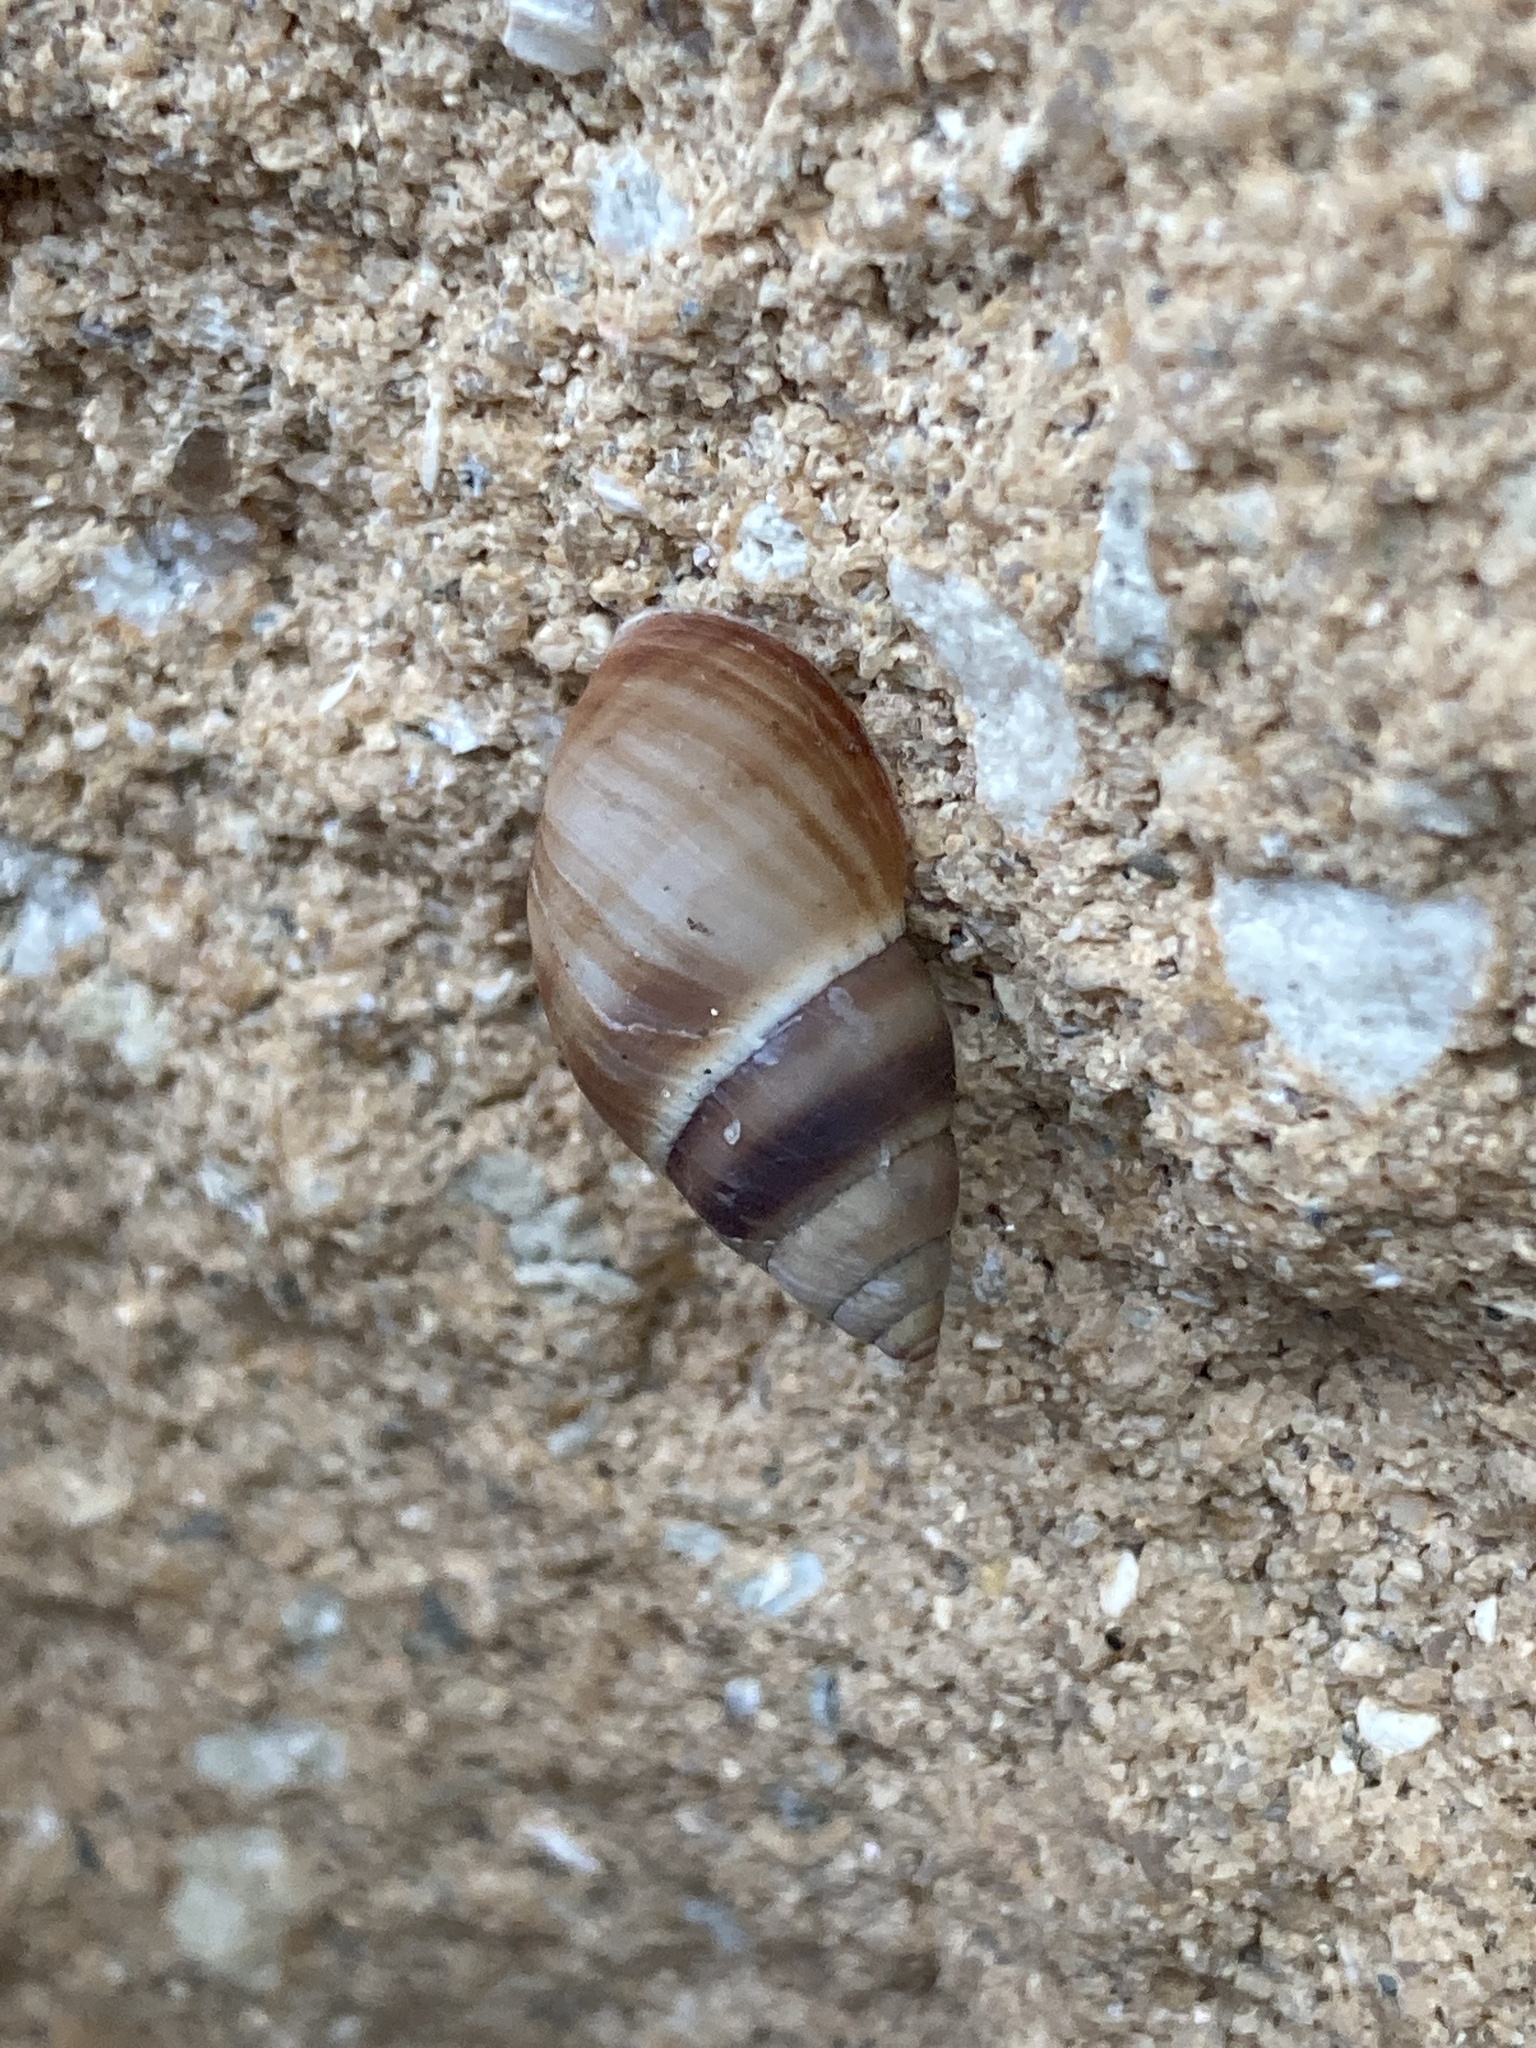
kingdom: Animalia
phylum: Mollusca
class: Gastropoda
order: Stylommatophora
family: Bulimulidae
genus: Bulimulus
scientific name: Bulimulus guadalupensis
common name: West indian bulimulus
